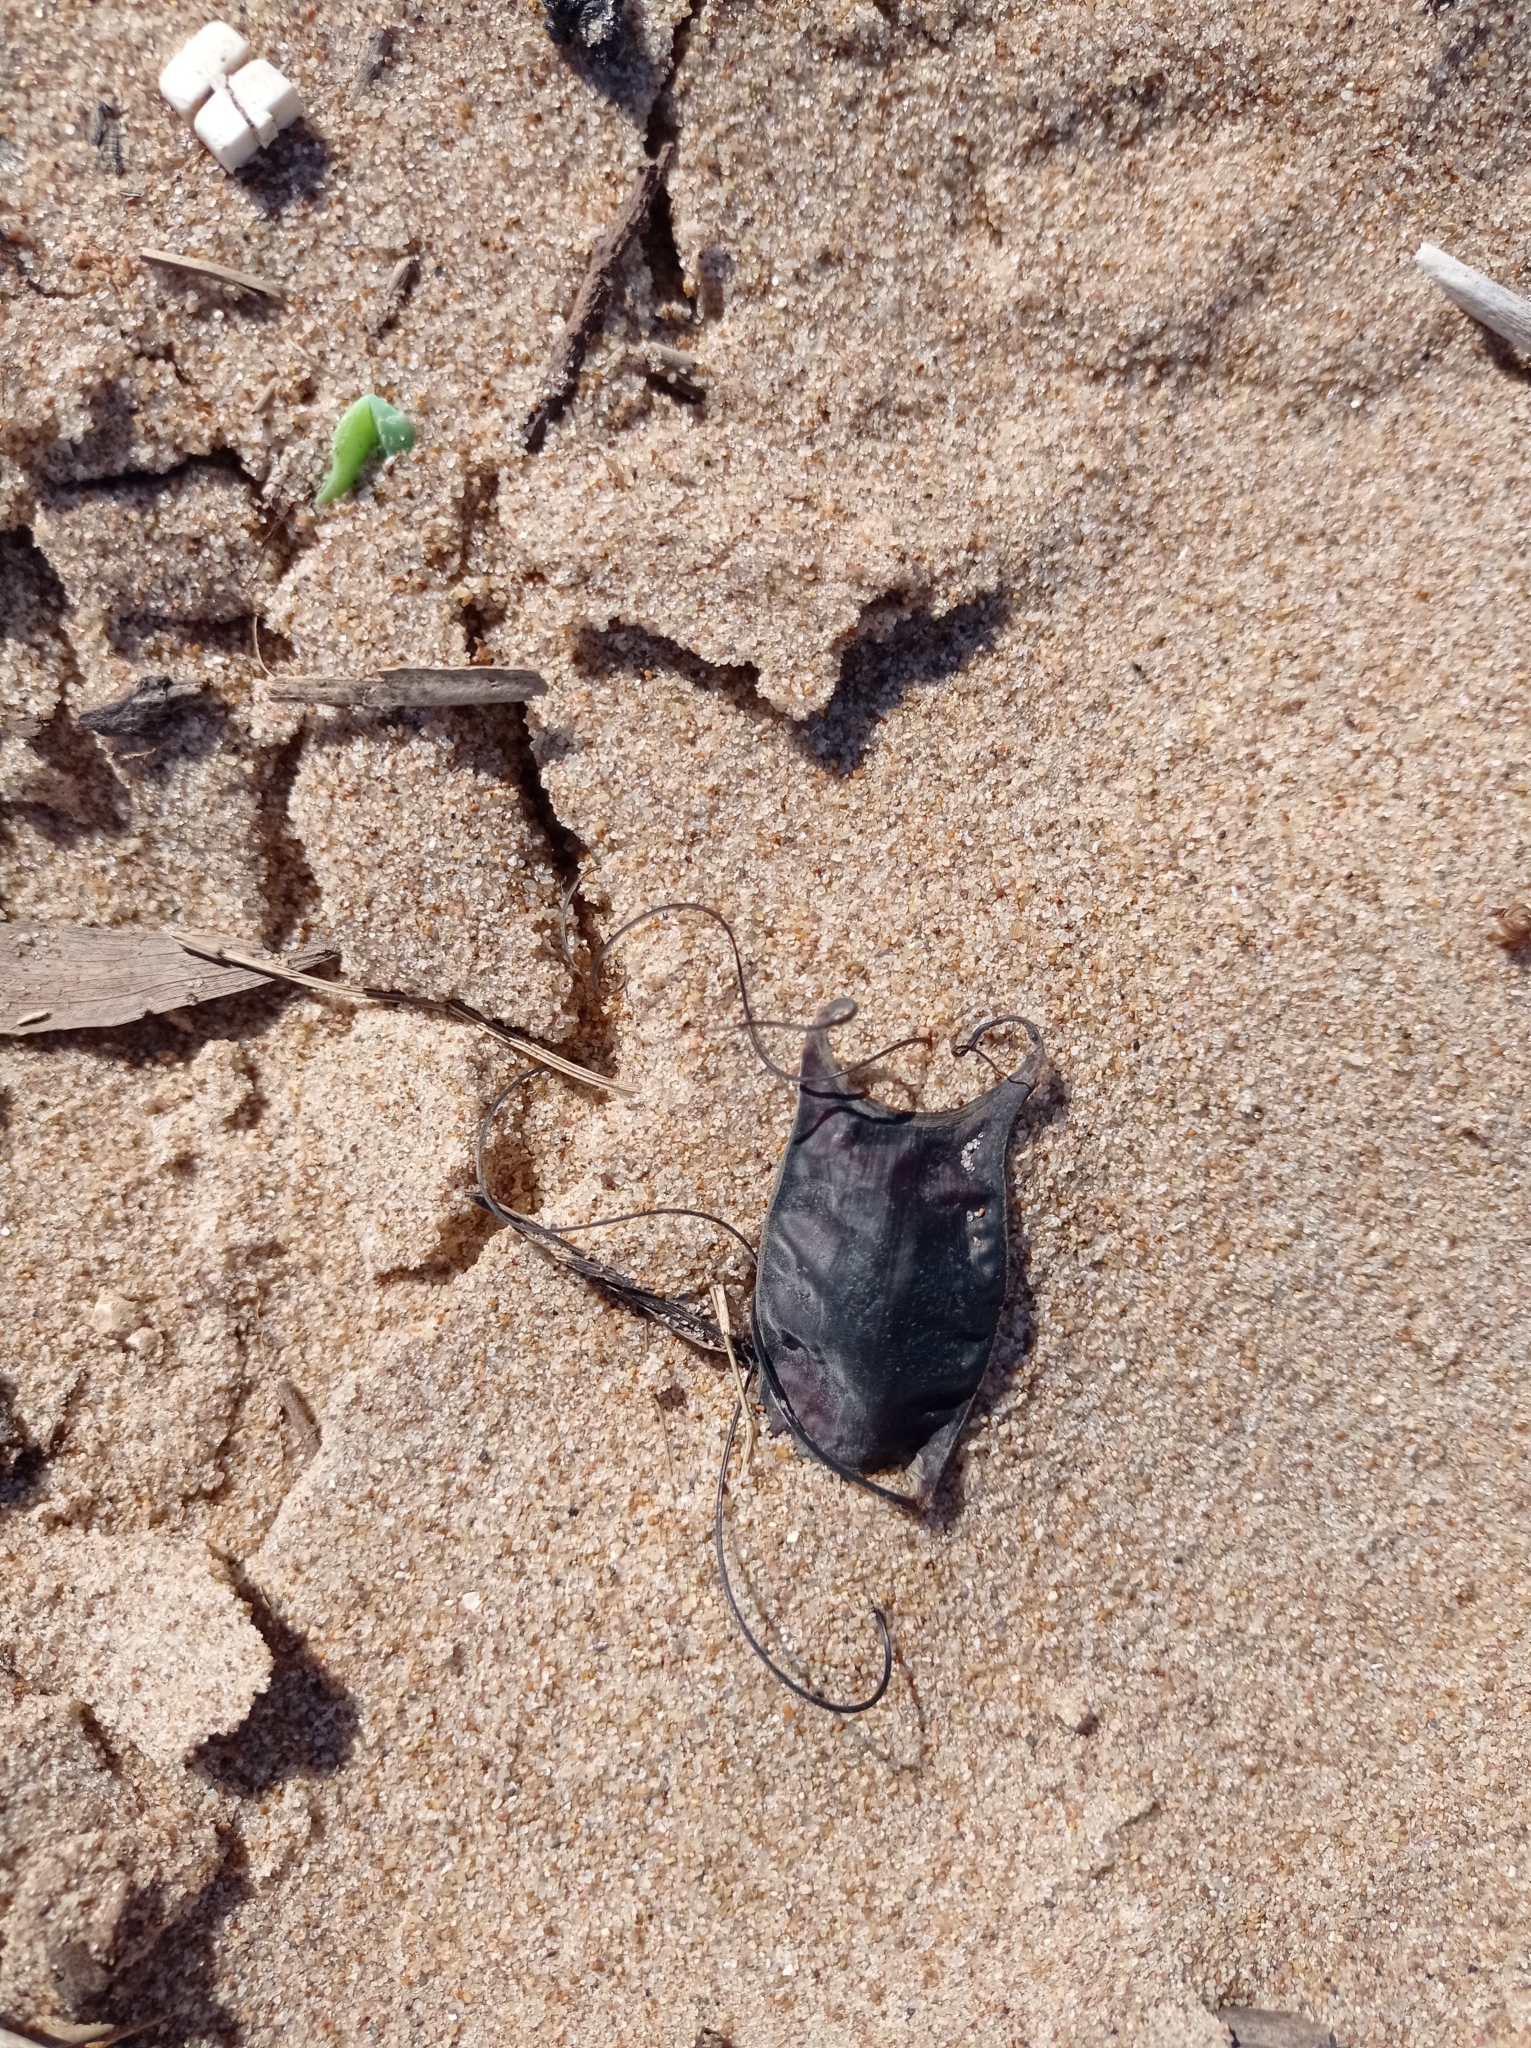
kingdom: Animalia
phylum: Chordata
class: Elasmobranchii
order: Rajiformes
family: Arhynchobatidae
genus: Sympterygia
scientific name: Sympterygia bonapartii
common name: Smallnose fanskate
